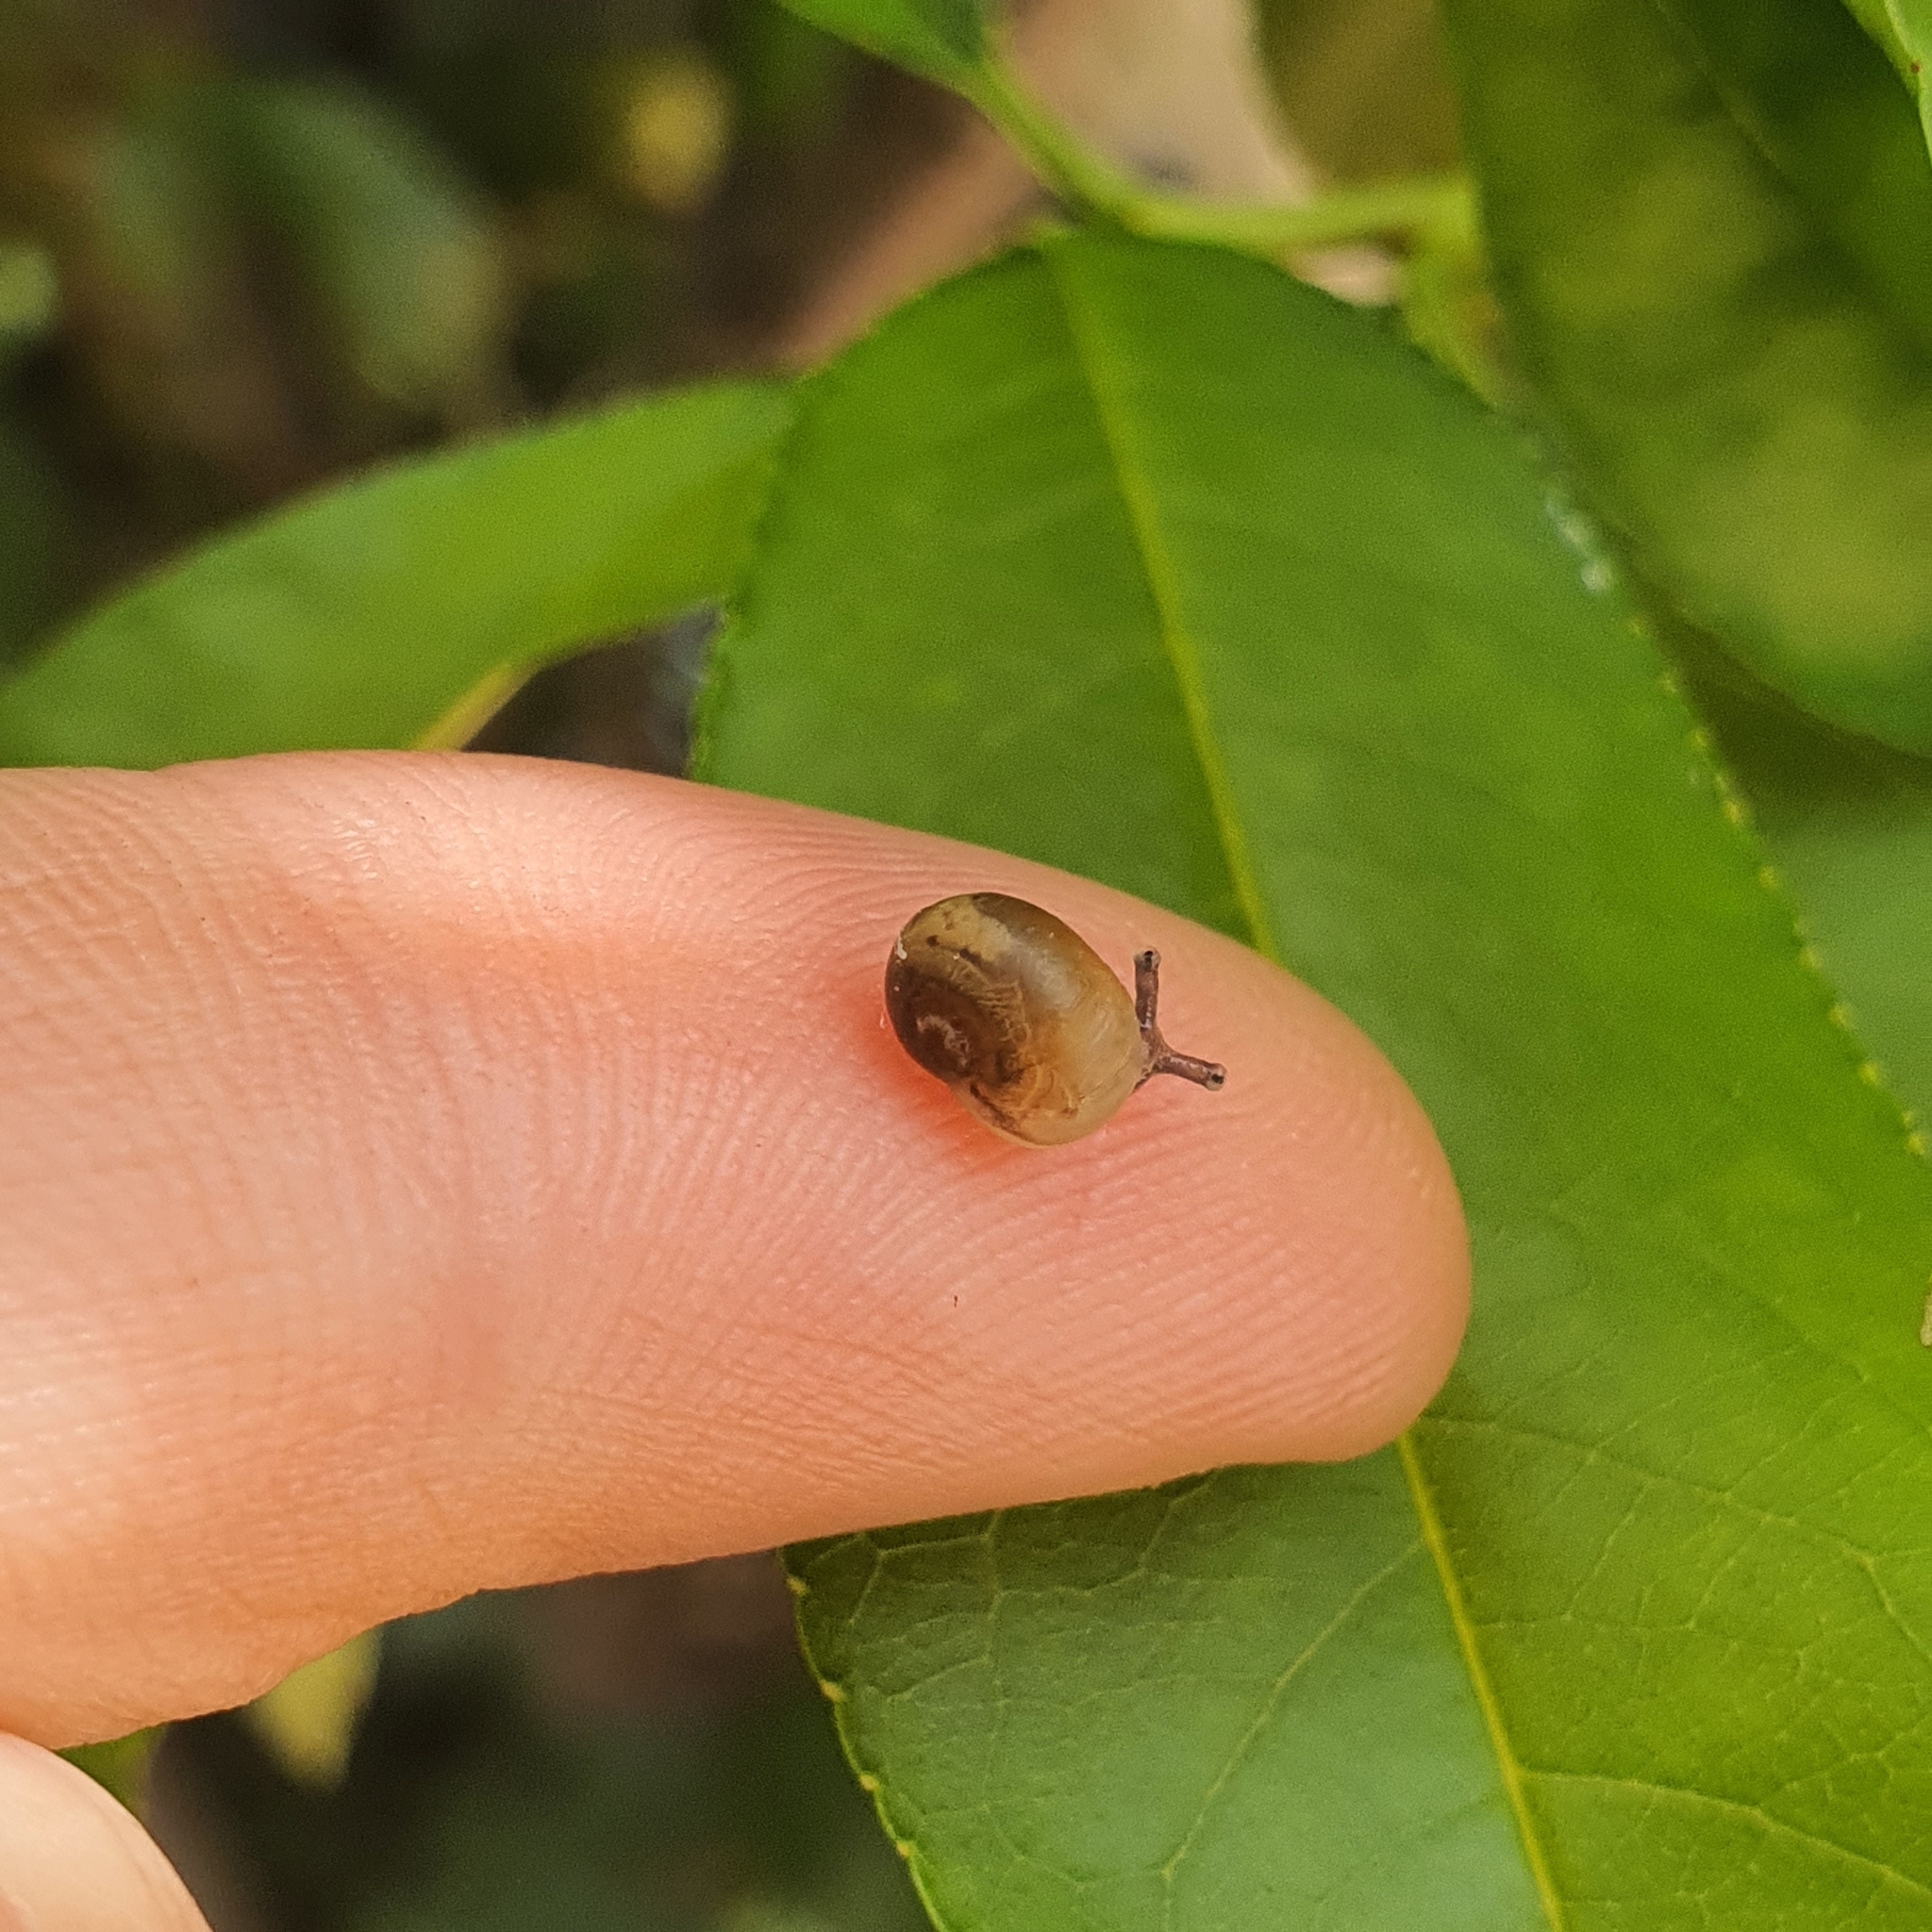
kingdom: Animalia
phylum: Mollusca
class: Gastropoda
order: Stylommatophora
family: Helicidae
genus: Cornu
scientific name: Cornu aspersum
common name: Brown garden snail
